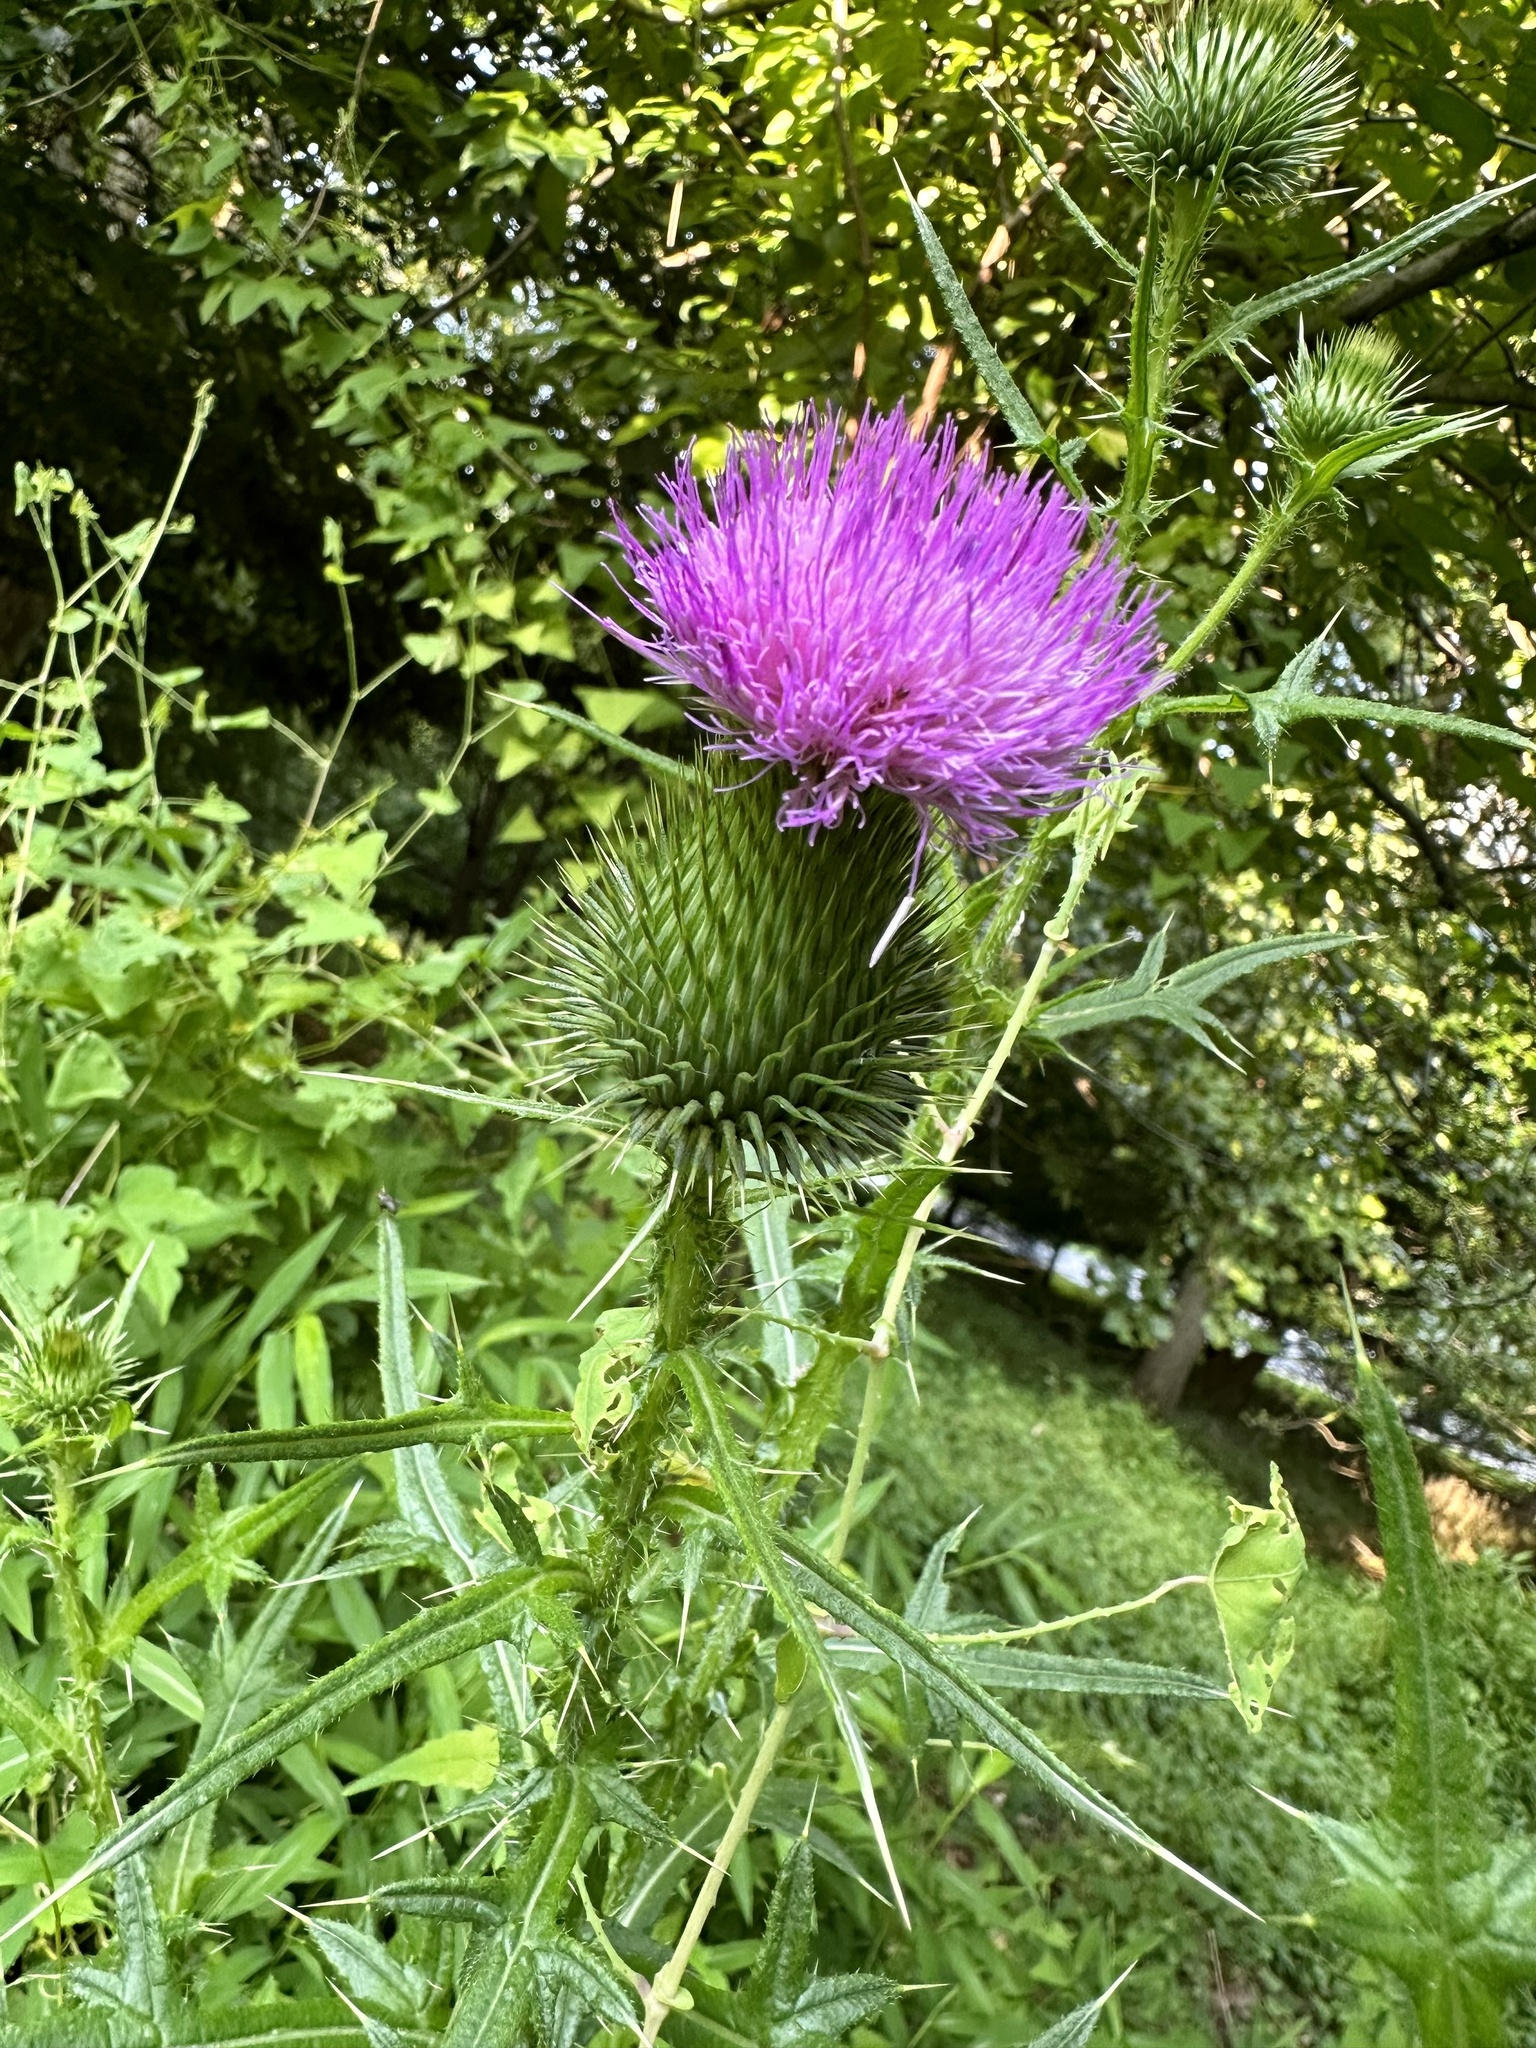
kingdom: Plantae
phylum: Tracheophyta
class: Magnoliopsida
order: Asterales
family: Asteraceae
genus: Cirsium
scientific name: Cirsium vulgare
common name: Bull thistle
